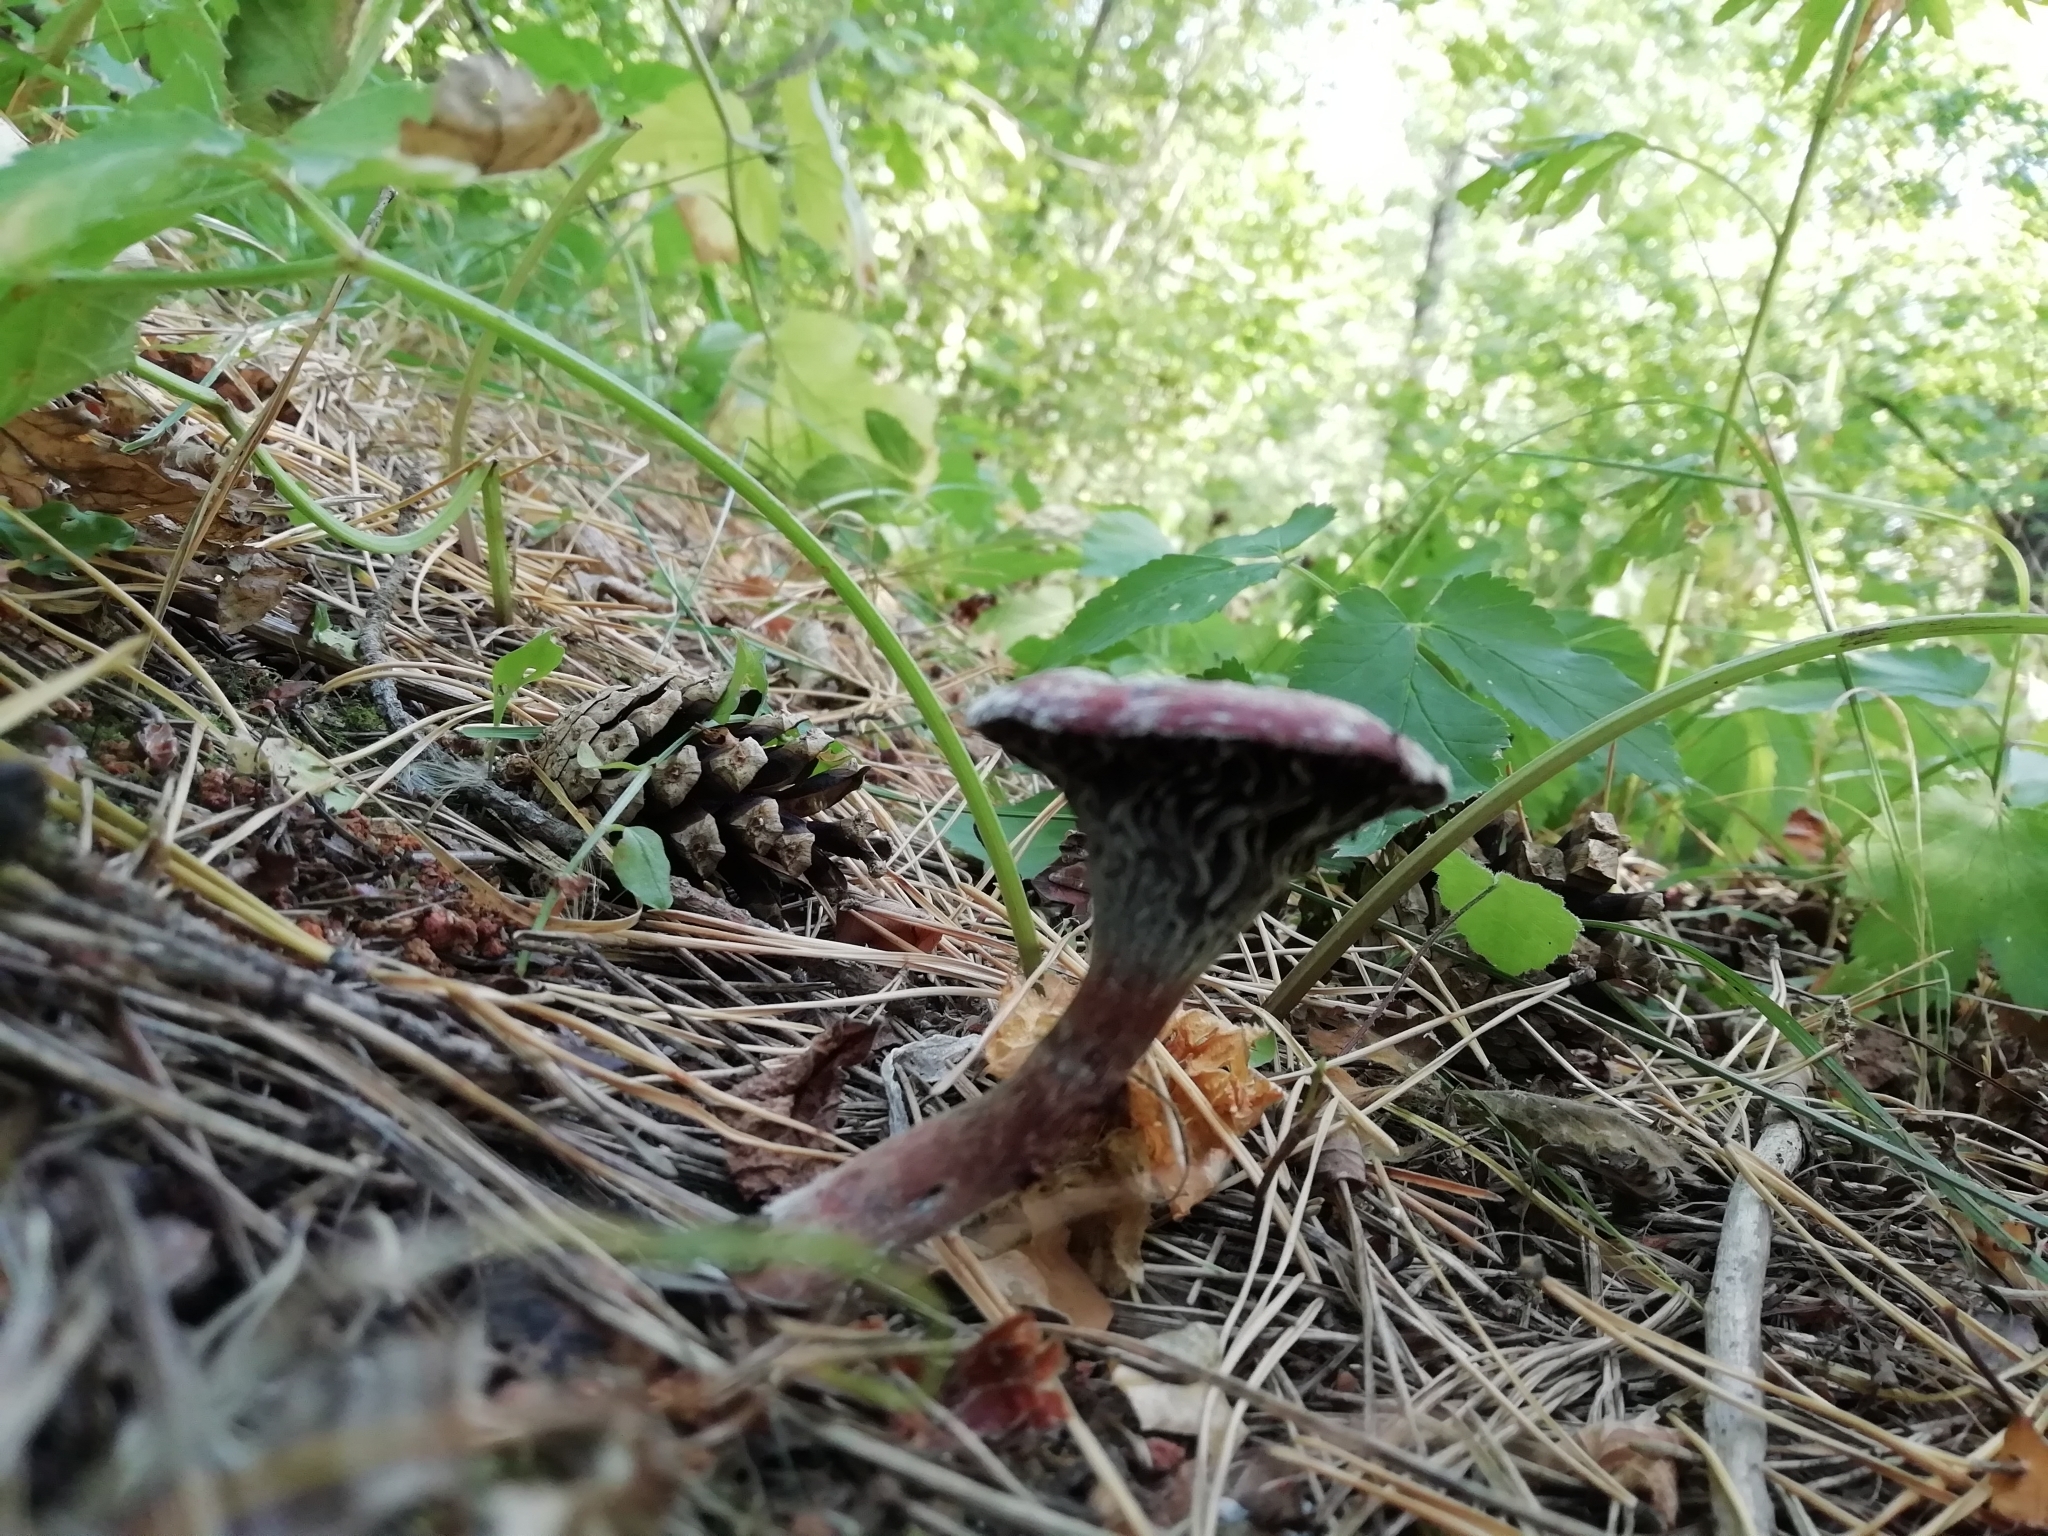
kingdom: Fungi
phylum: Basidiomycota
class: Agaricomycetes
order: Boletales
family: Gomphidiaceae
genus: Chroogomphus
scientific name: Chroogomphus rutilus
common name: Copper spike
